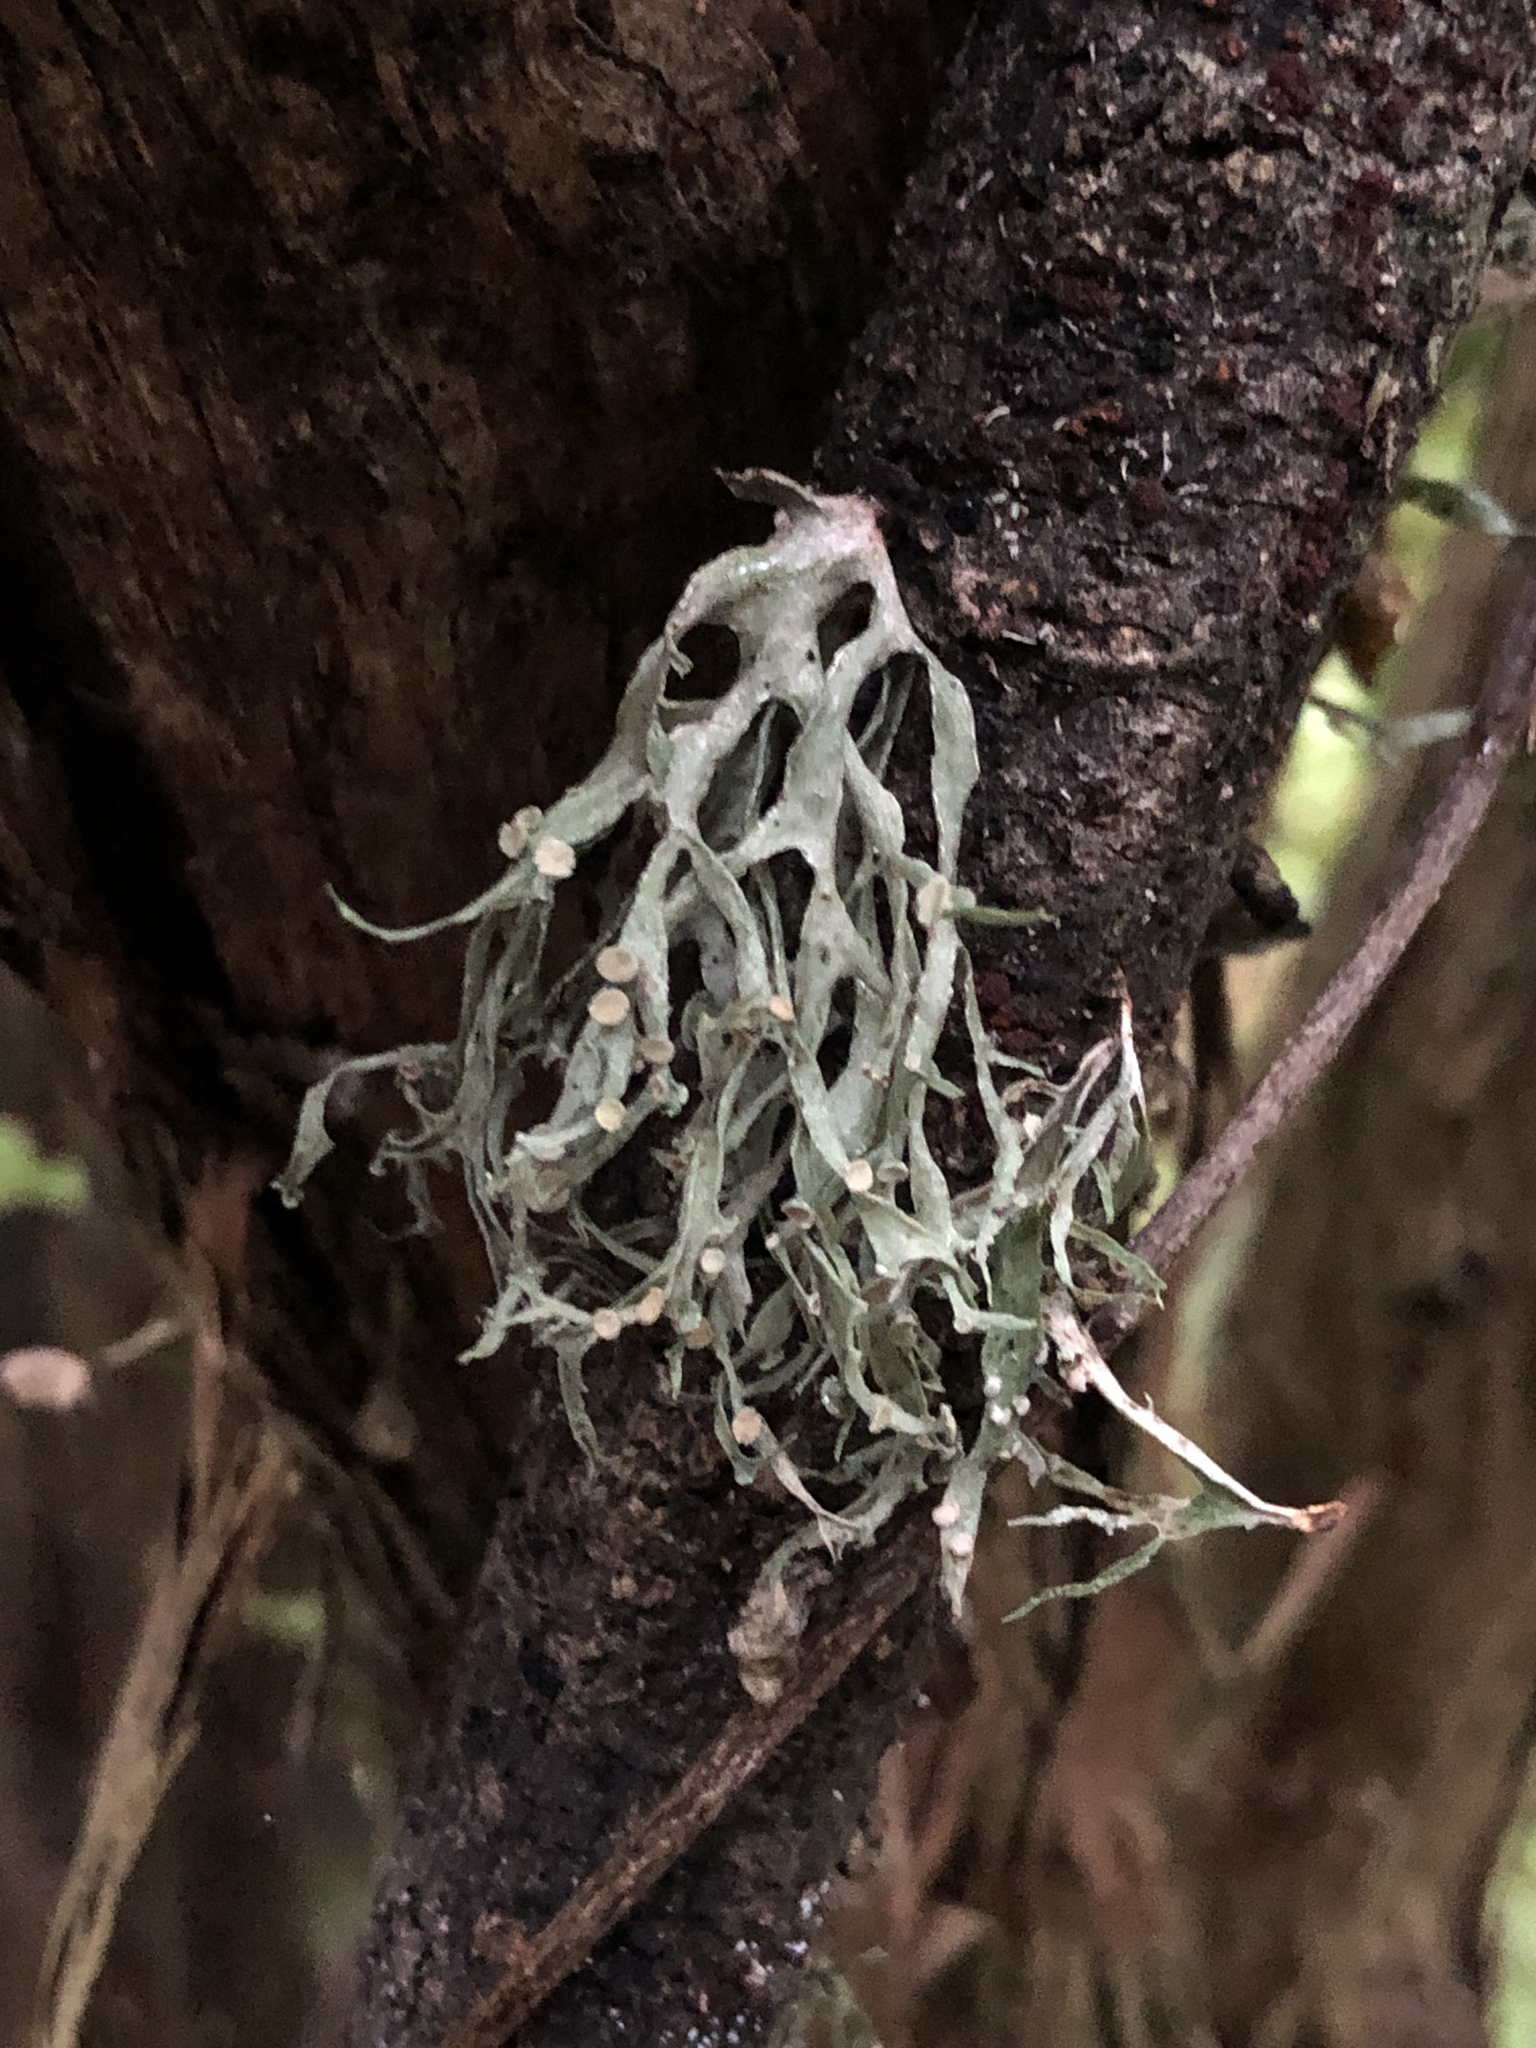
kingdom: Fungi
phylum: Ascomycota
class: Lecanoromycetes
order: Lecanorales
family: Ramalinaceae
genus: Ramalina
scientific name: Ramalina inflexa
